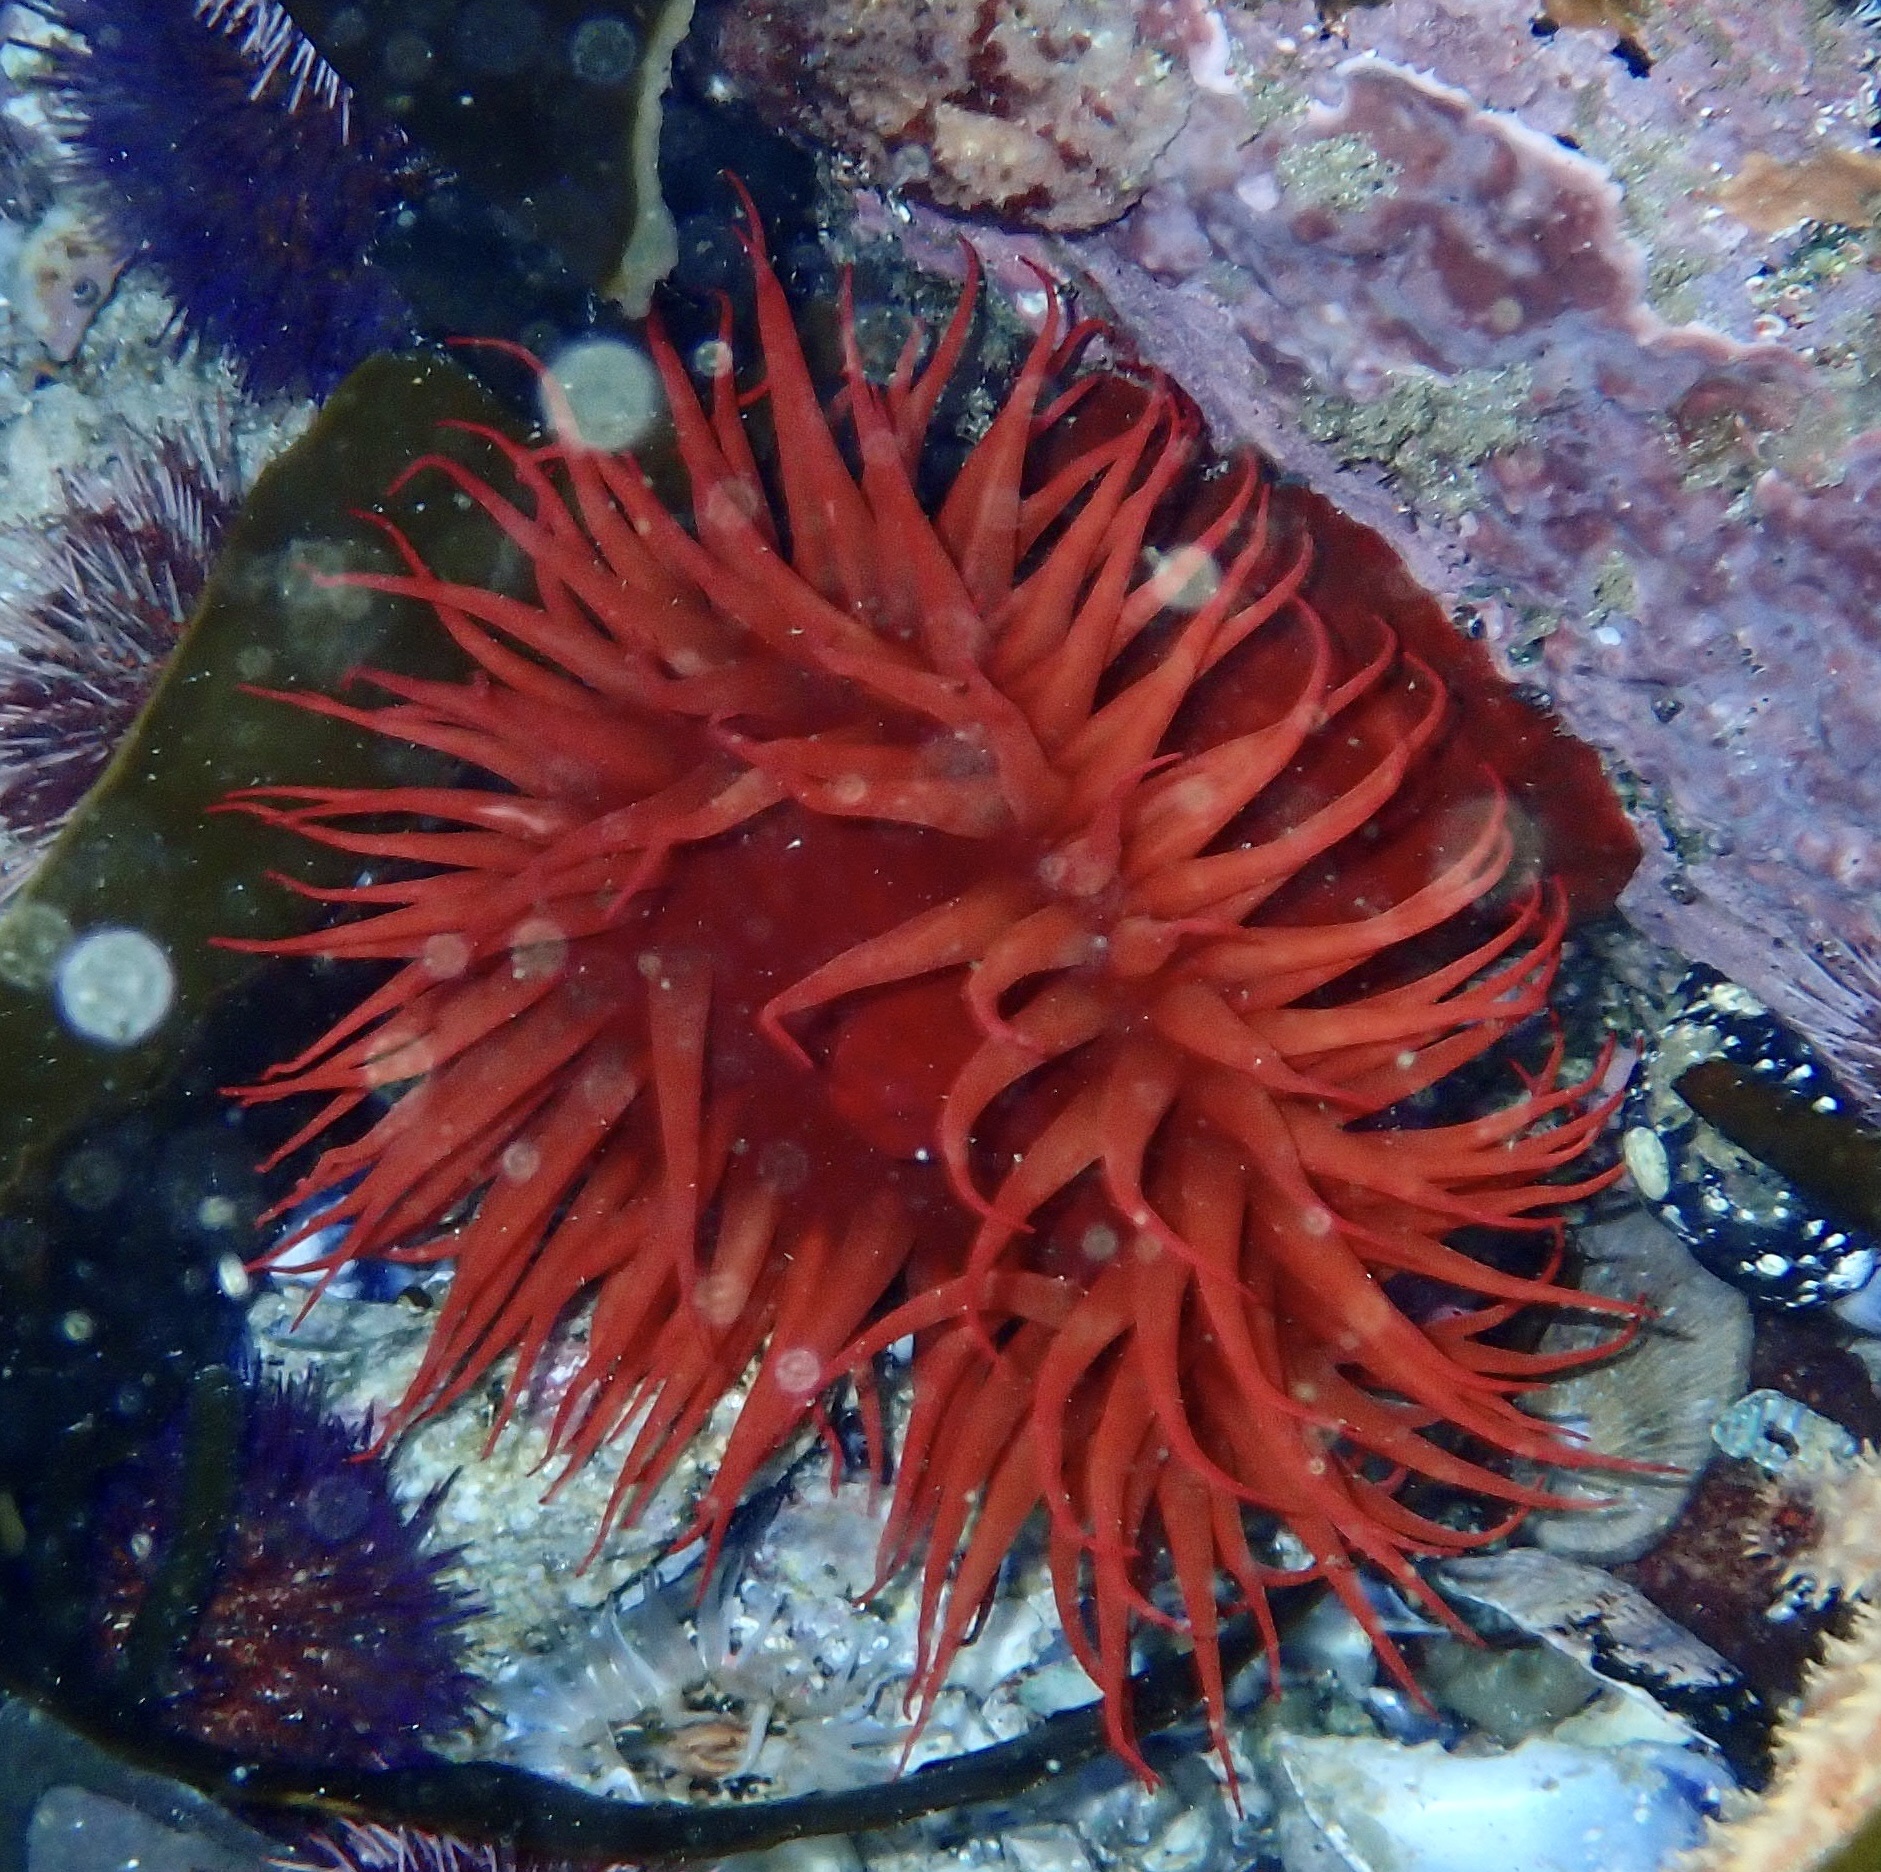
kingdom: Animalia
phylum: Cnidaria
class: Anthozoa
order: Actiniaria
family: Actiniidae
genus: Pseudactinia
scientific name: Pseudactinia flagellifera
